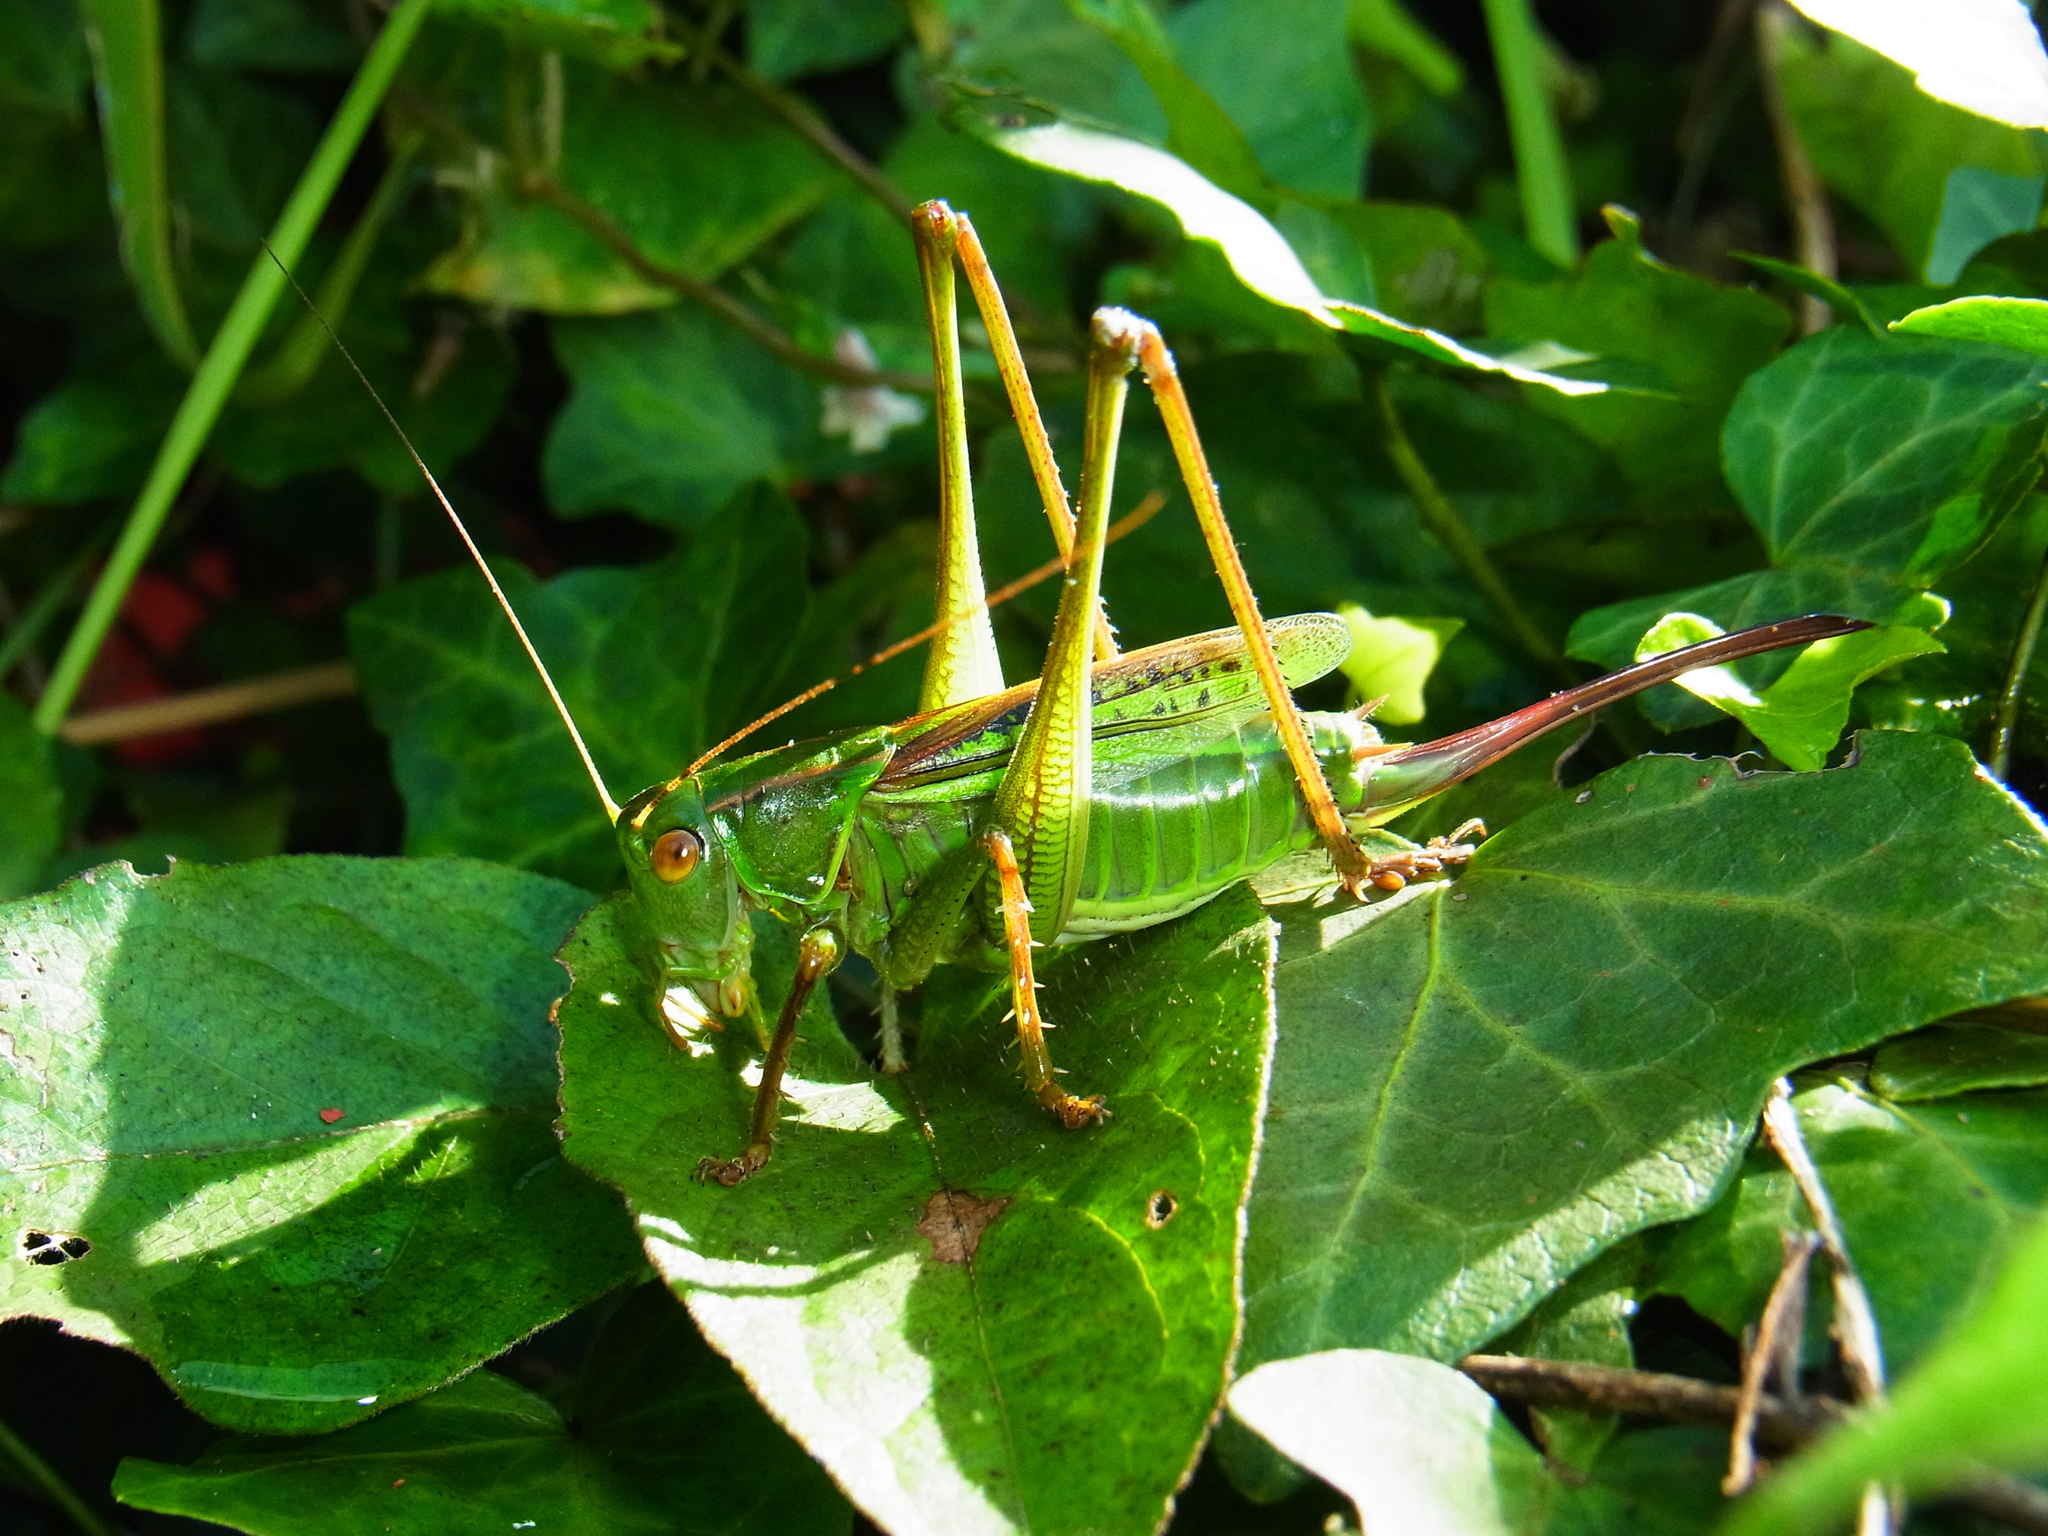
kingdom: Animalia
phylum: Arthropoda
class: Insecta
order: Orthoptera
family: Tettigoniidae
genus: Gampsocleis
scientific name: Gampsocleis buergeri
